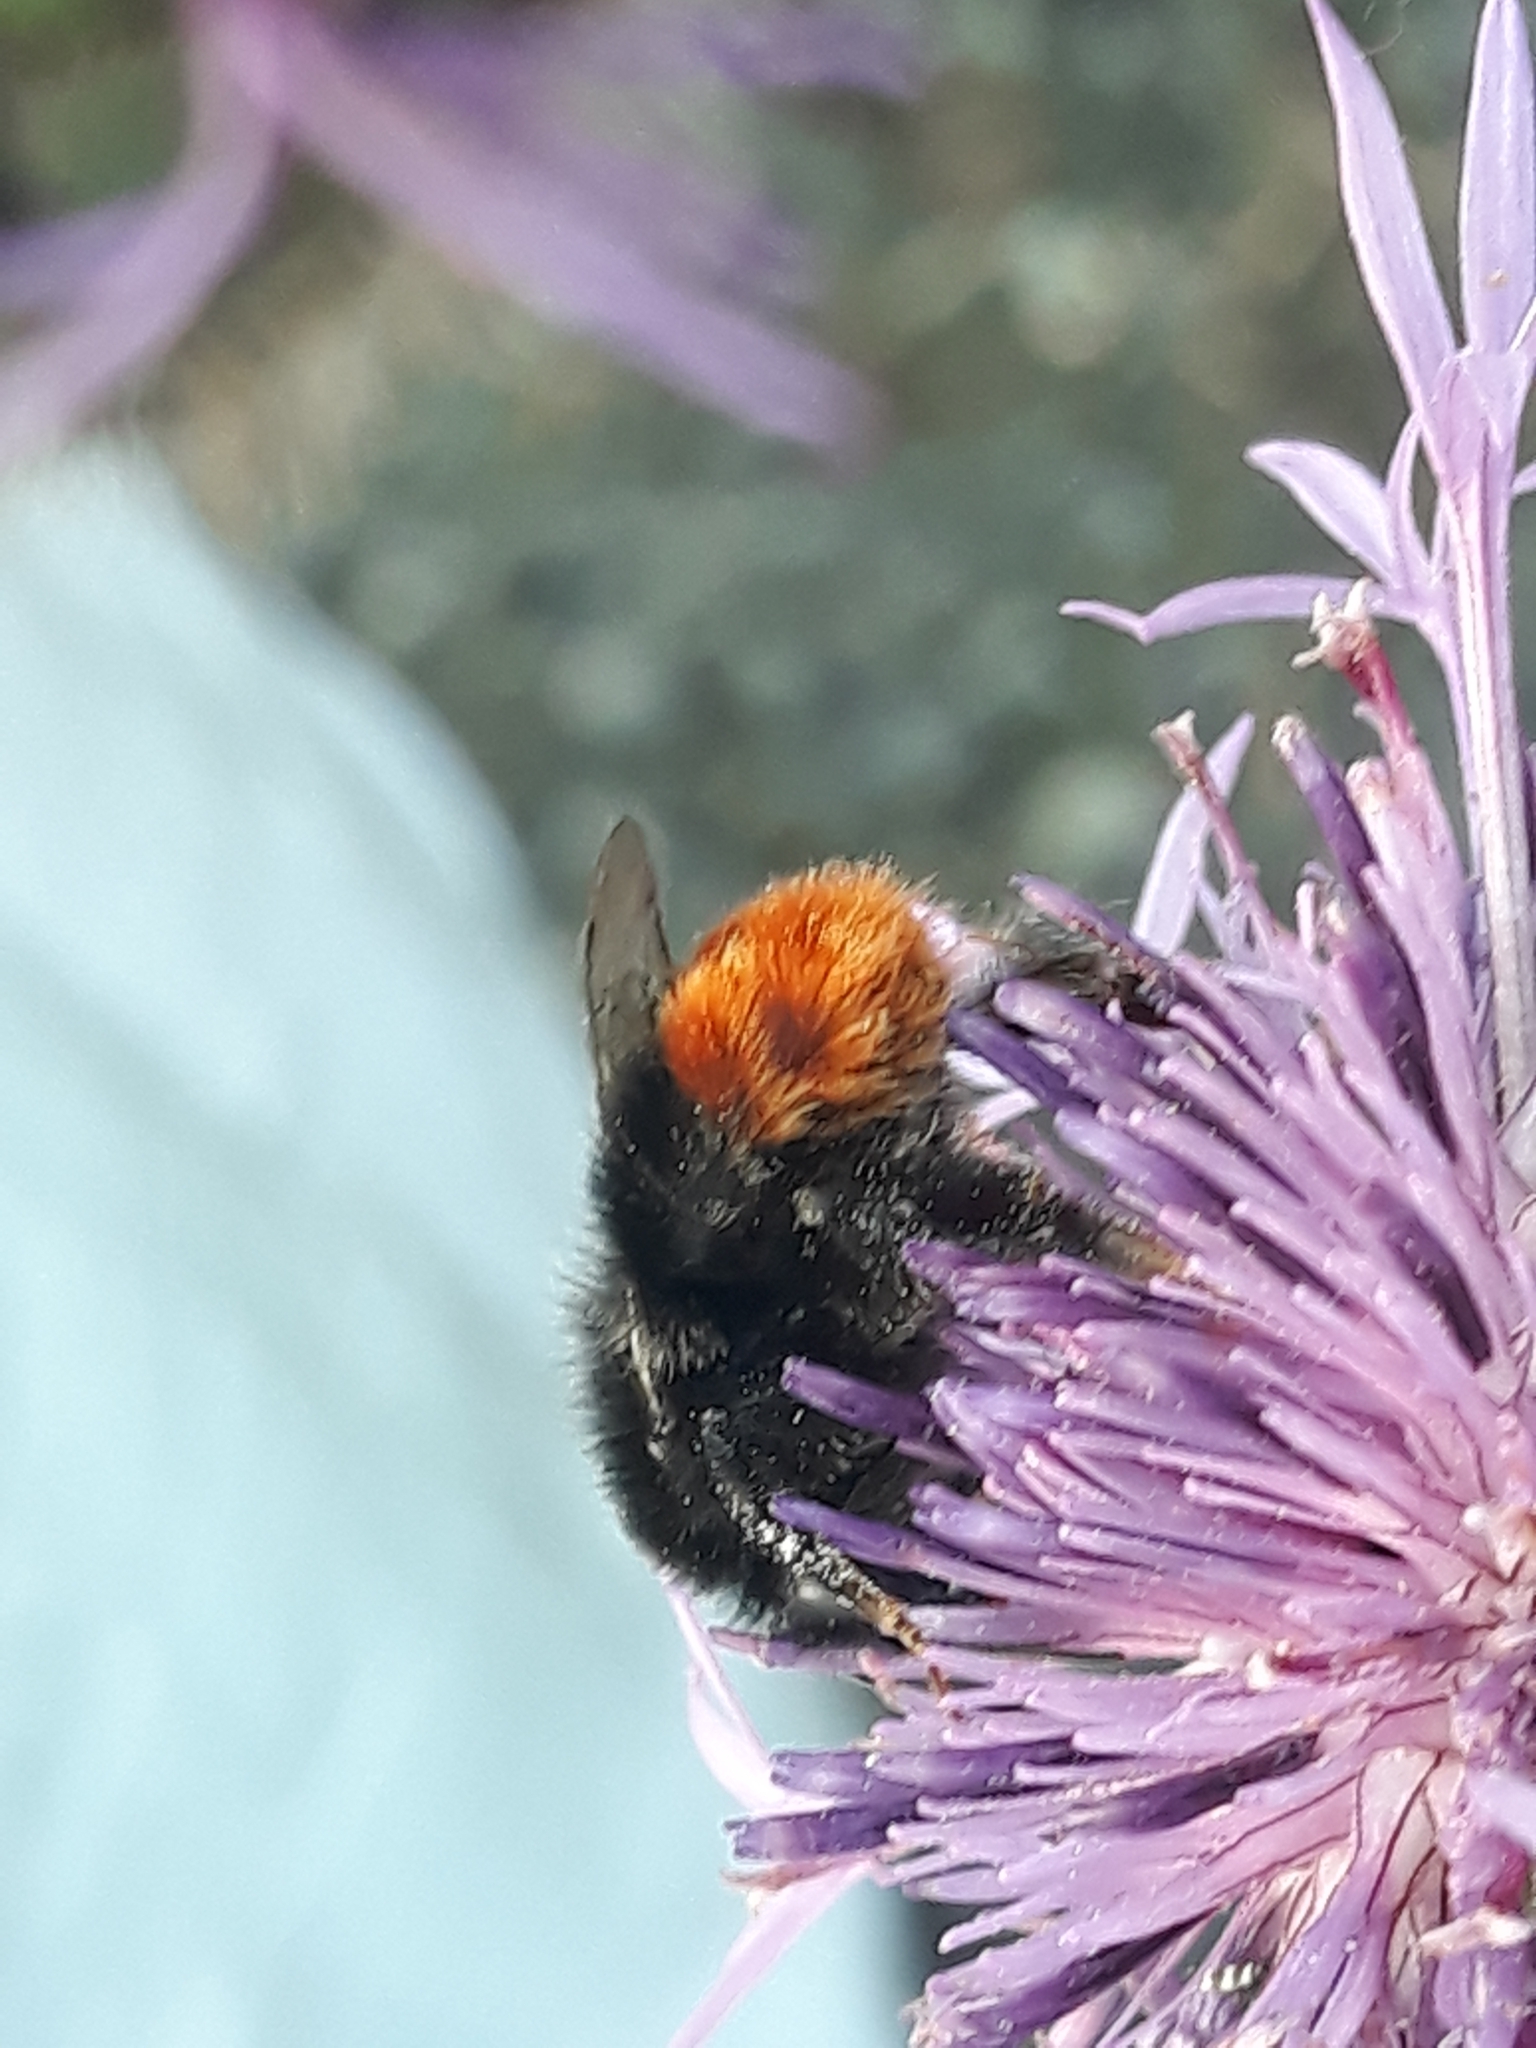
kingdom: Animalia
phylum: Arthropoda
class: Insecta
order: Hymenoptera
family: Apidae
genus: Bombus
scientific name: Bombus lapidarius
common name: Large red-tailed humble-bee
